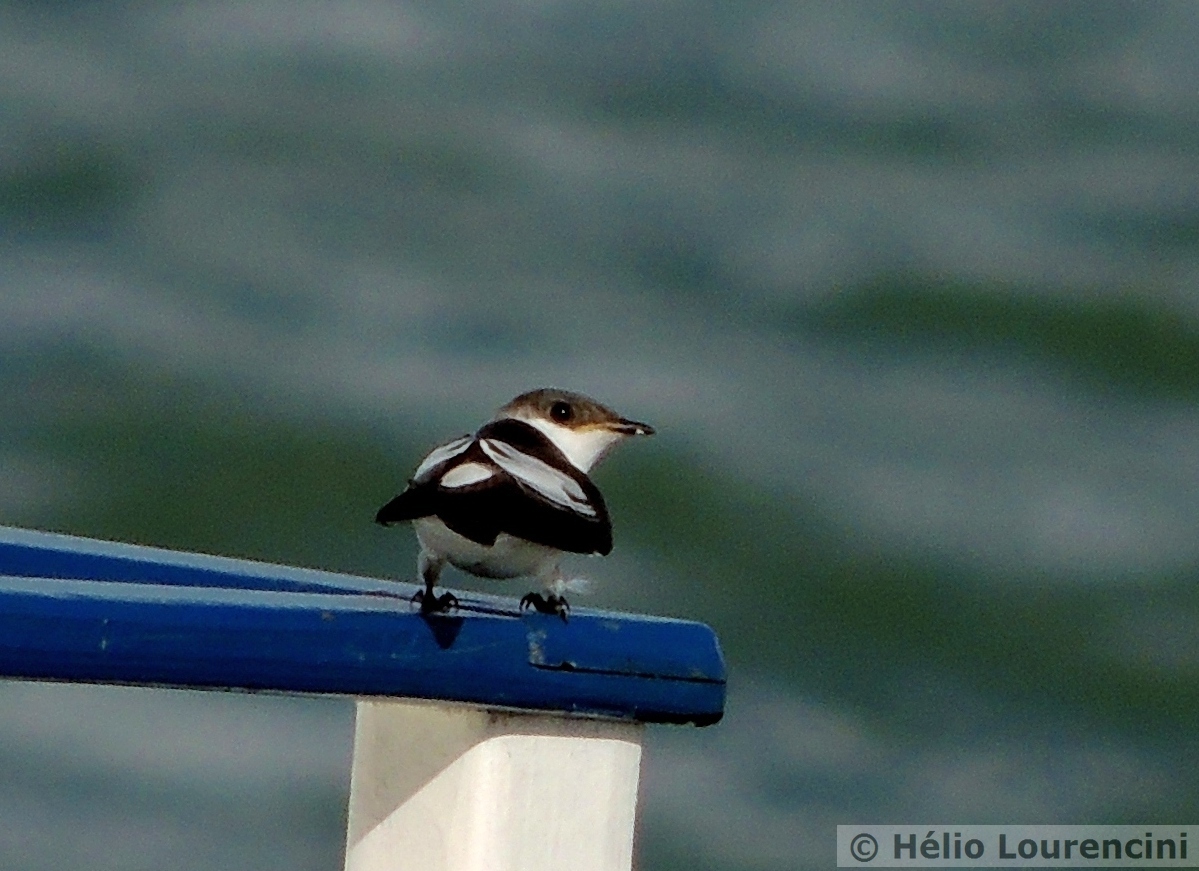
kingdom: Animalia
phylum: Chordata
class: Aves
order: Passeriformes
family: Hirundinidae
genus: Tachycineta
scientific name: Tachycineta albiventer
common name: White-winged swallow
